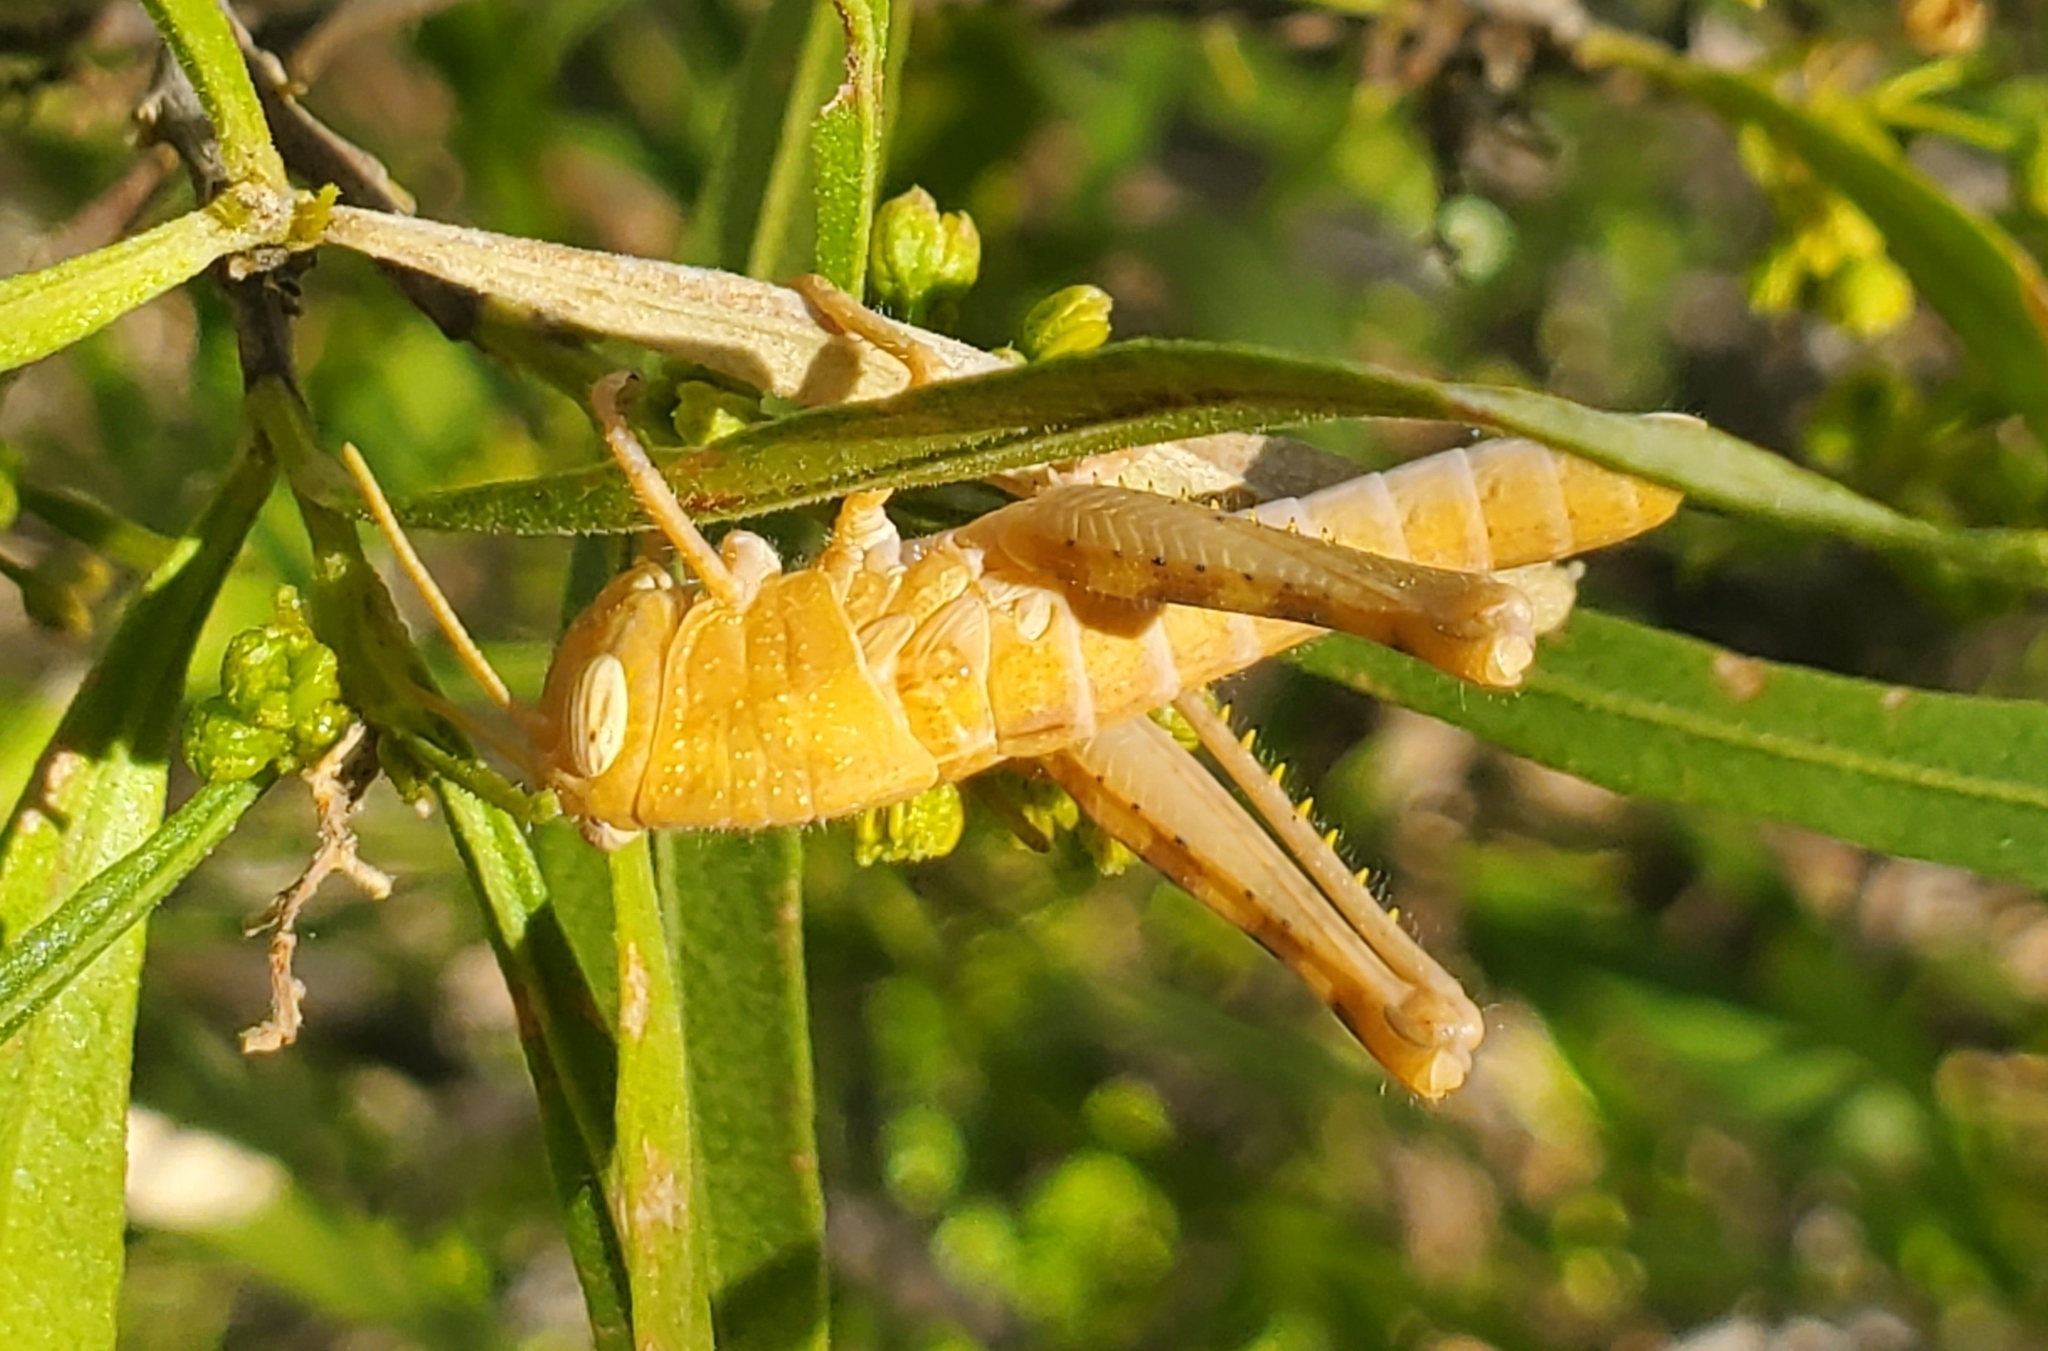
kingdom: Animalia
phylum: Arthropoda
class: Insecta
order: Orthoptera
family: Acrididae
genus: Schistocerca
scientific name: Schistocerca nitens
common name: Vagrant grasshopper
